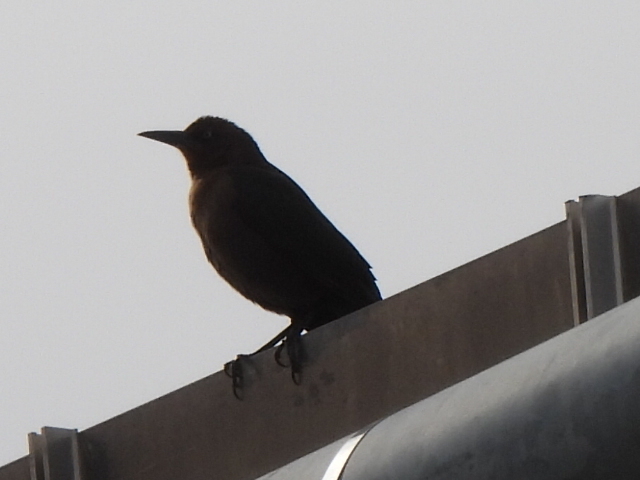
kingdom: Animalia
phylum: Chordata
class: Aves
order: Passeriformes
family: Icteridae
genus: Quiscalus
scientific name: Quiscalus mexicanus
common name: Great-tailed grackle
